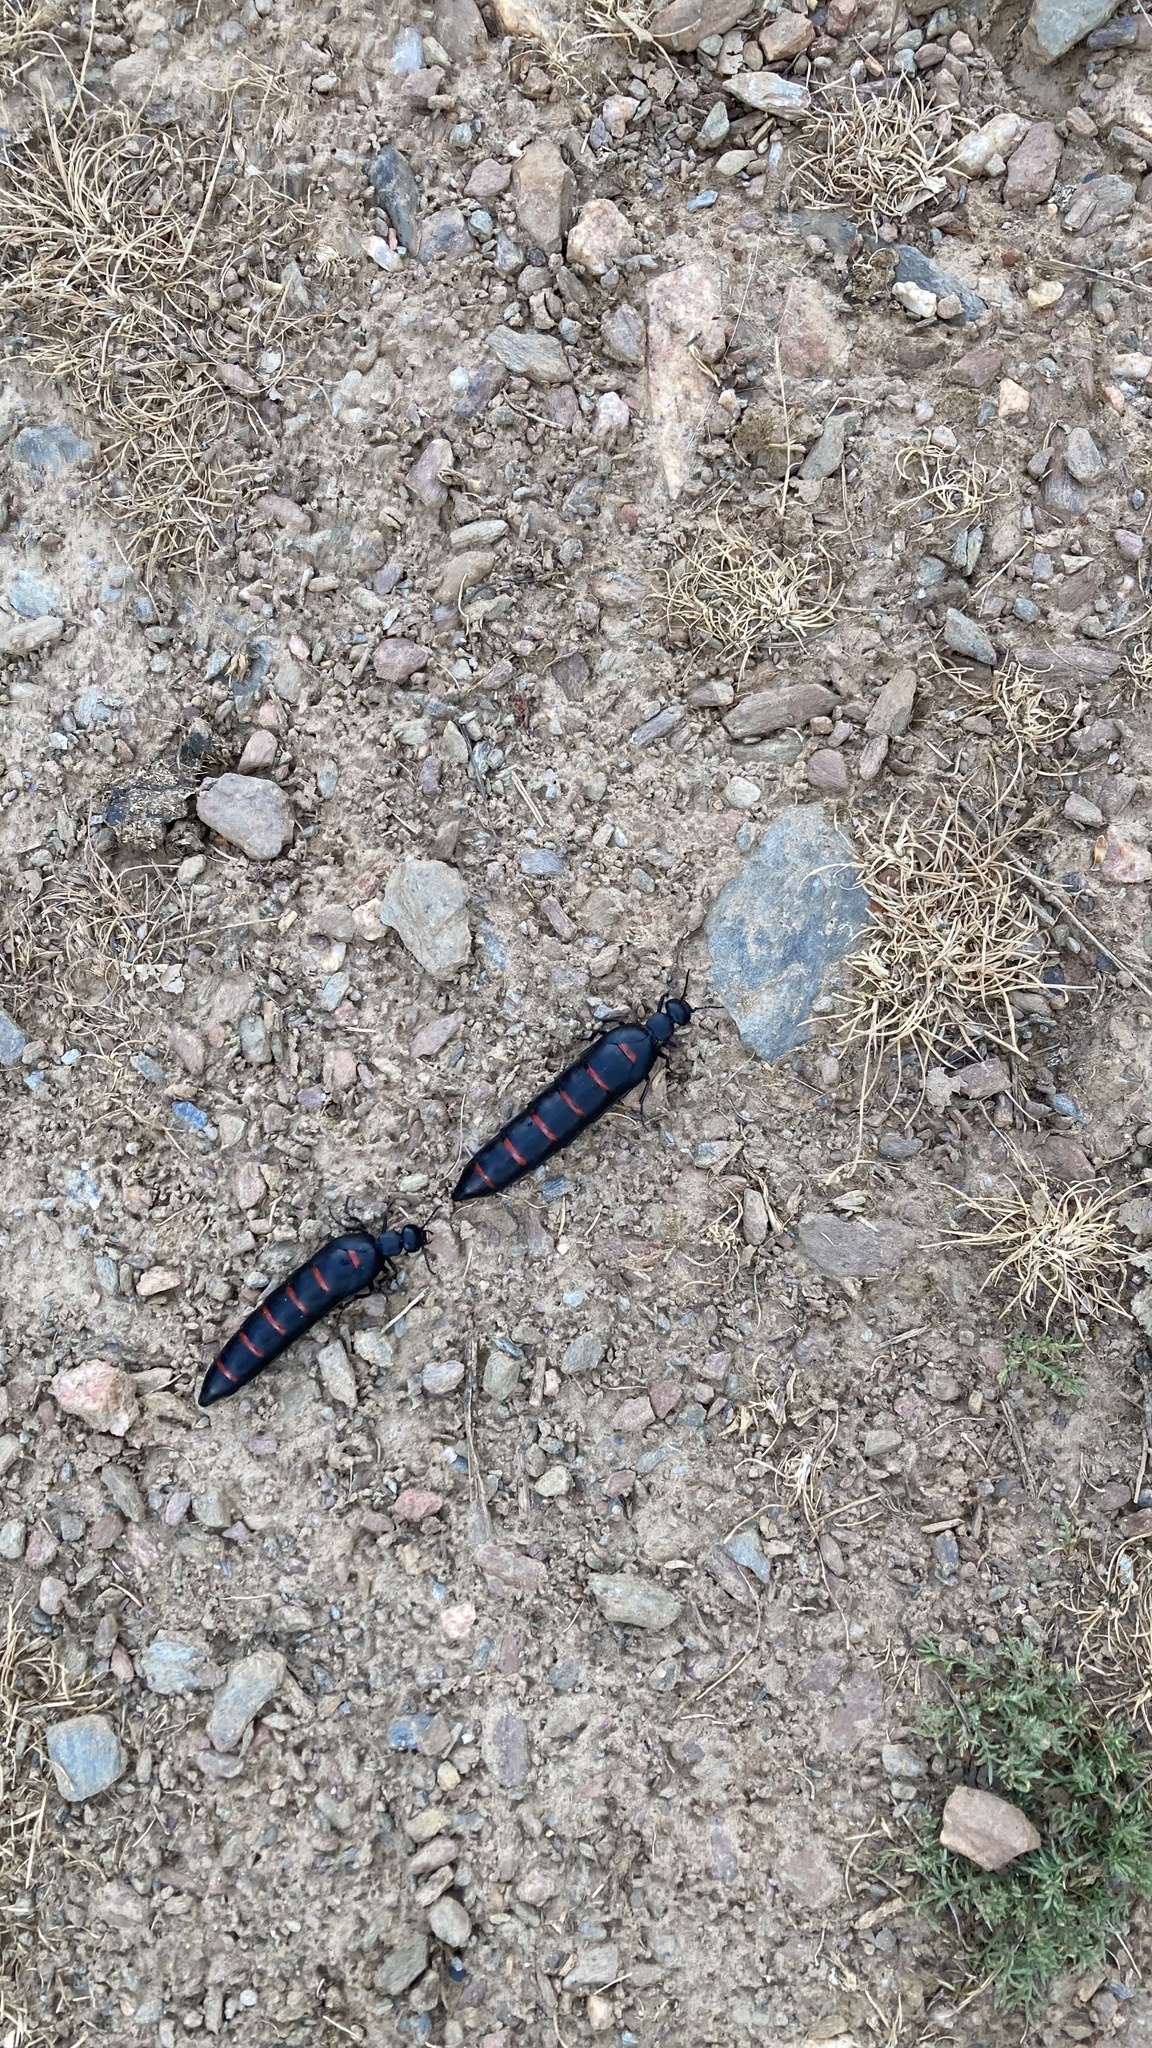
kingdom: Animalia
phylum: Arthropoda
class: Insecta
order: Coleoptera
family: Meloidae
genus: Berberomeloe
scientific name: Berberomeloe castuo
